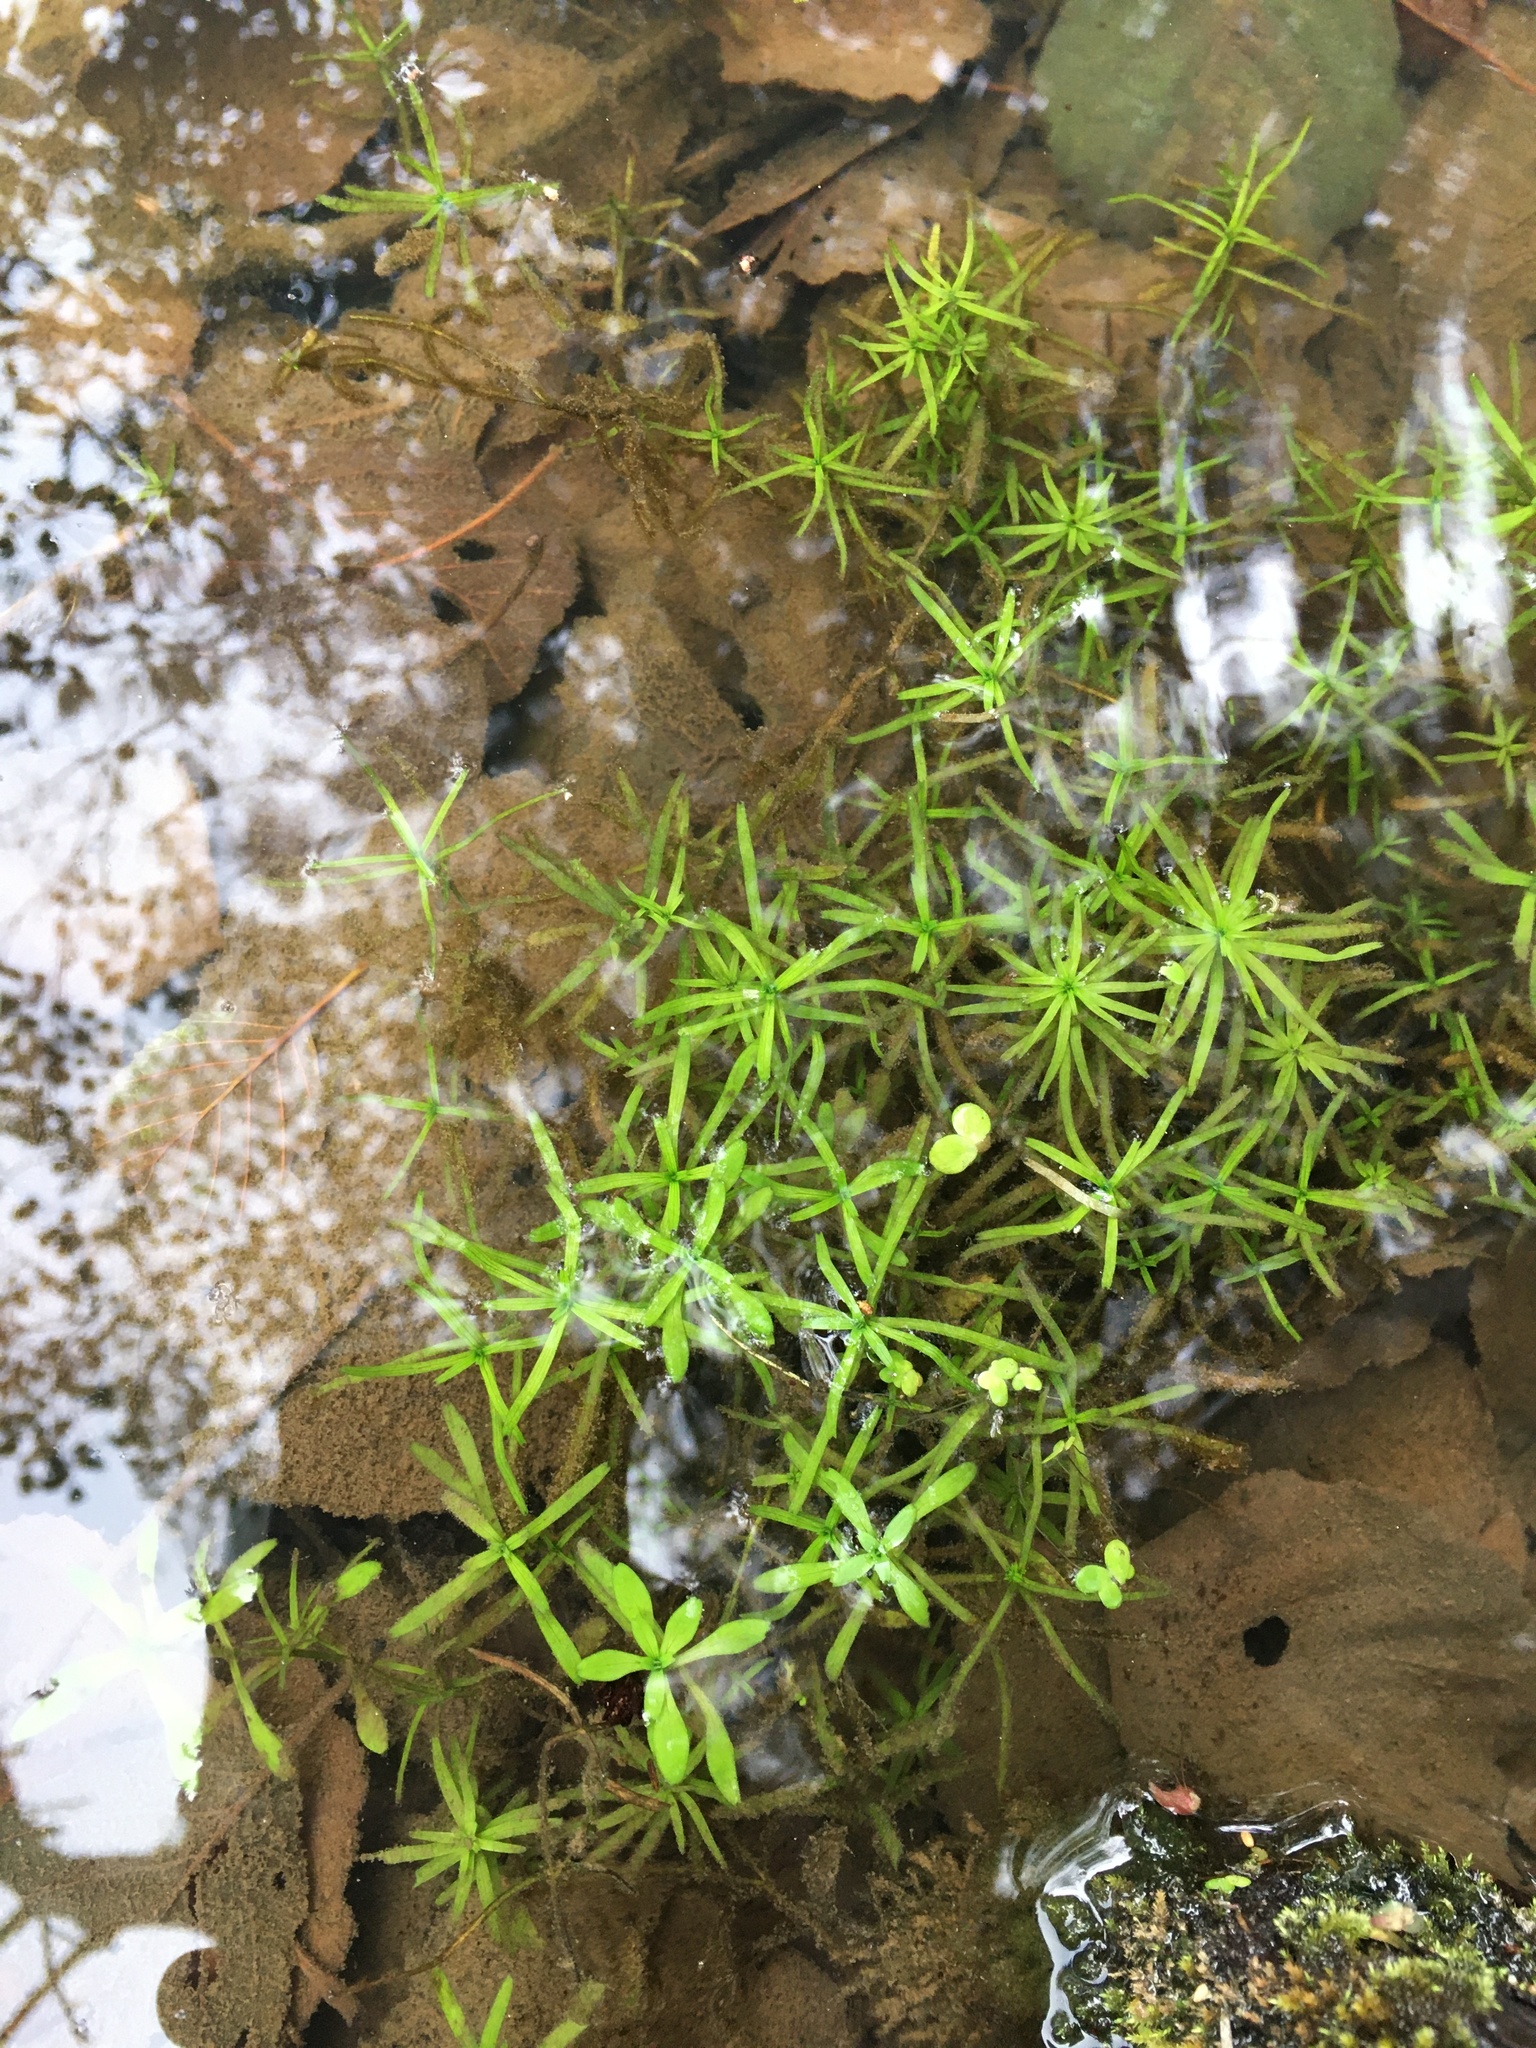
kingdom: Plantae
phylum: Tracheophyta
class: Magnoliopsida
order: Lamiales
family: Plantaginaceae
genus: Callitriche
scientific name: Callitriche palustris
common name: Spring water-starwort
